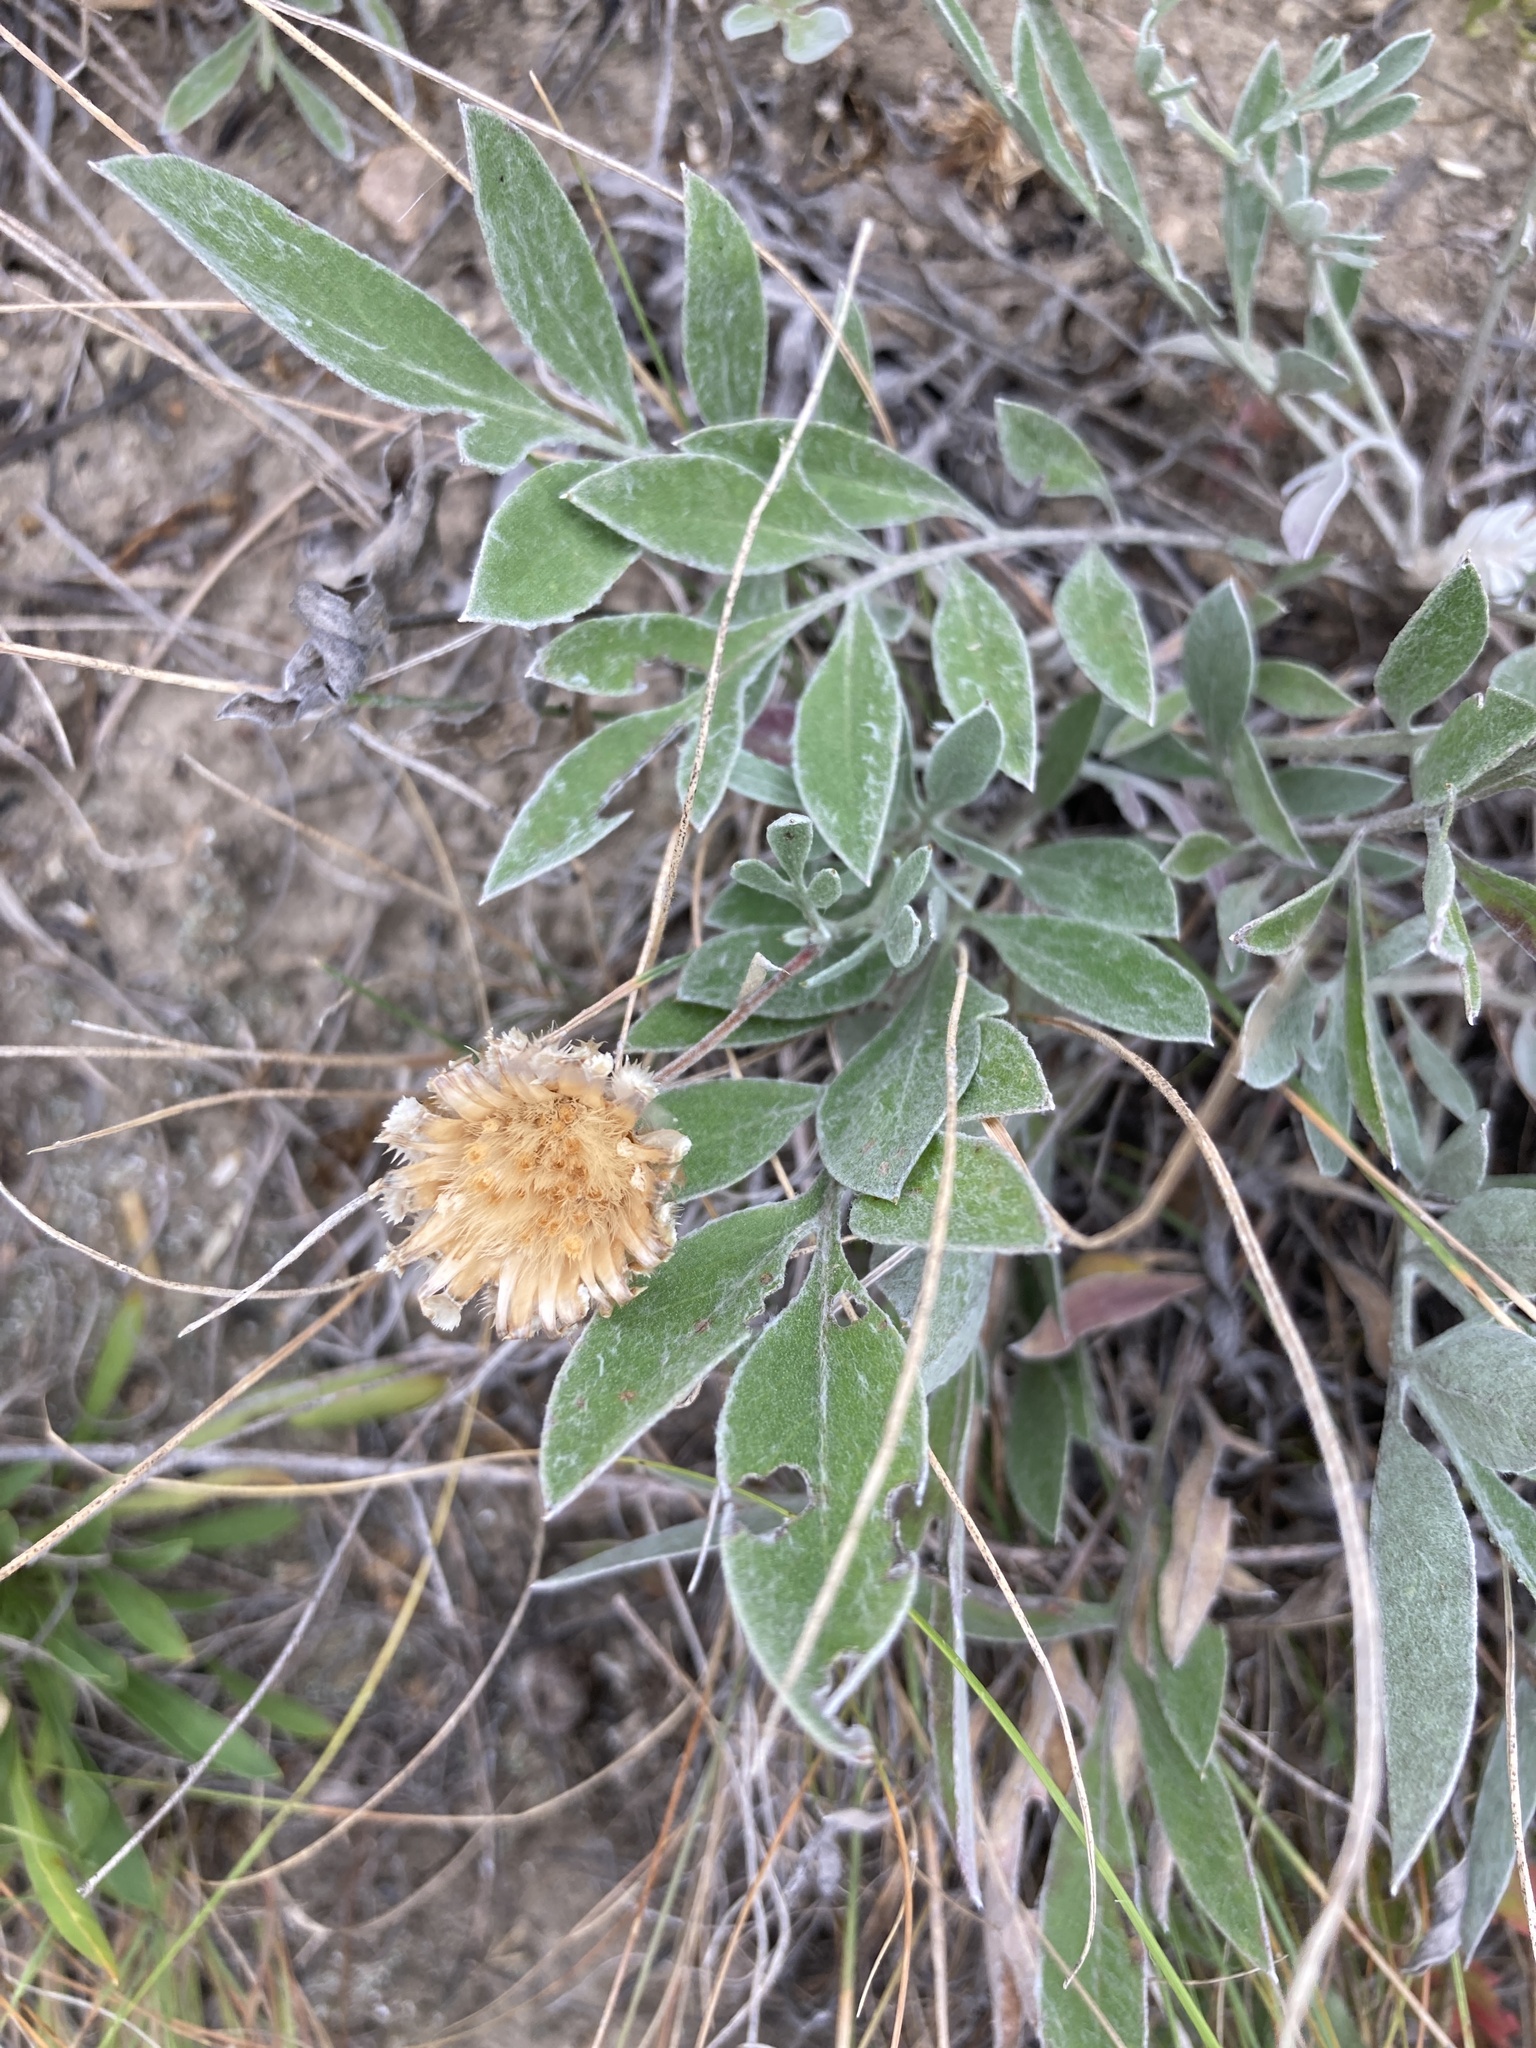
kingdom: Plantae
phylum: Tracheophyta
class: Magnoliopsida
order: Asterales
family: Asteraceae
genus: Psephellus
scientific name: Psephellus marschallianus
